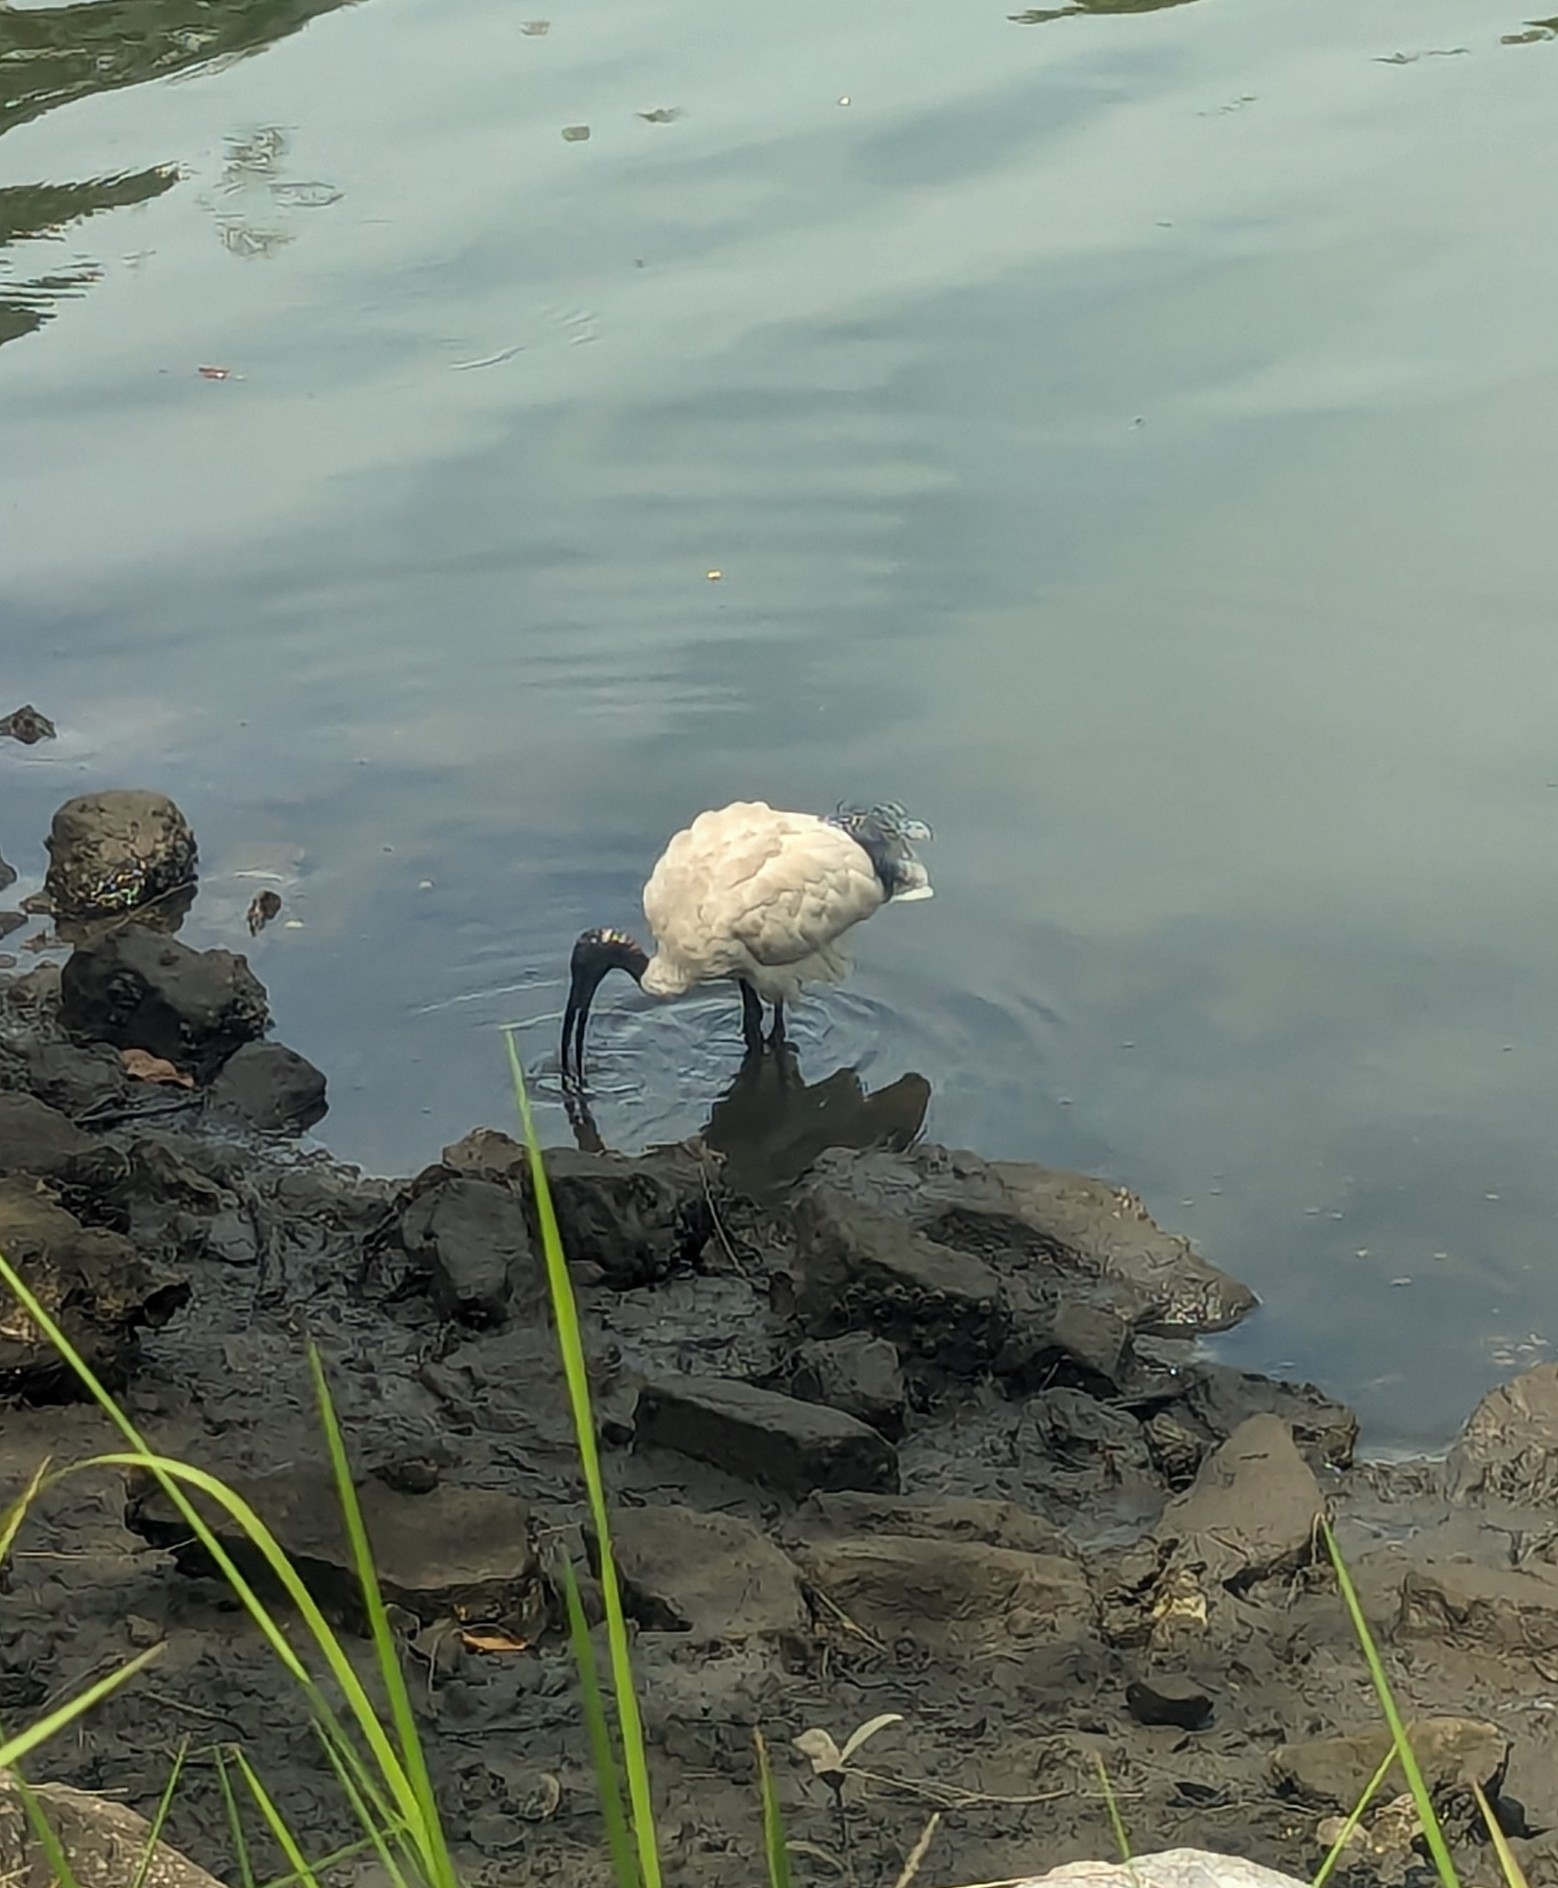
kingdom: Animalia
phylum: Chordata
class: Aves
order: Pelecaniformes
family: Threskiornithidae
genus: Threskiornis
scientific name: Threskiornis molucca
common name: Australian white ibis
